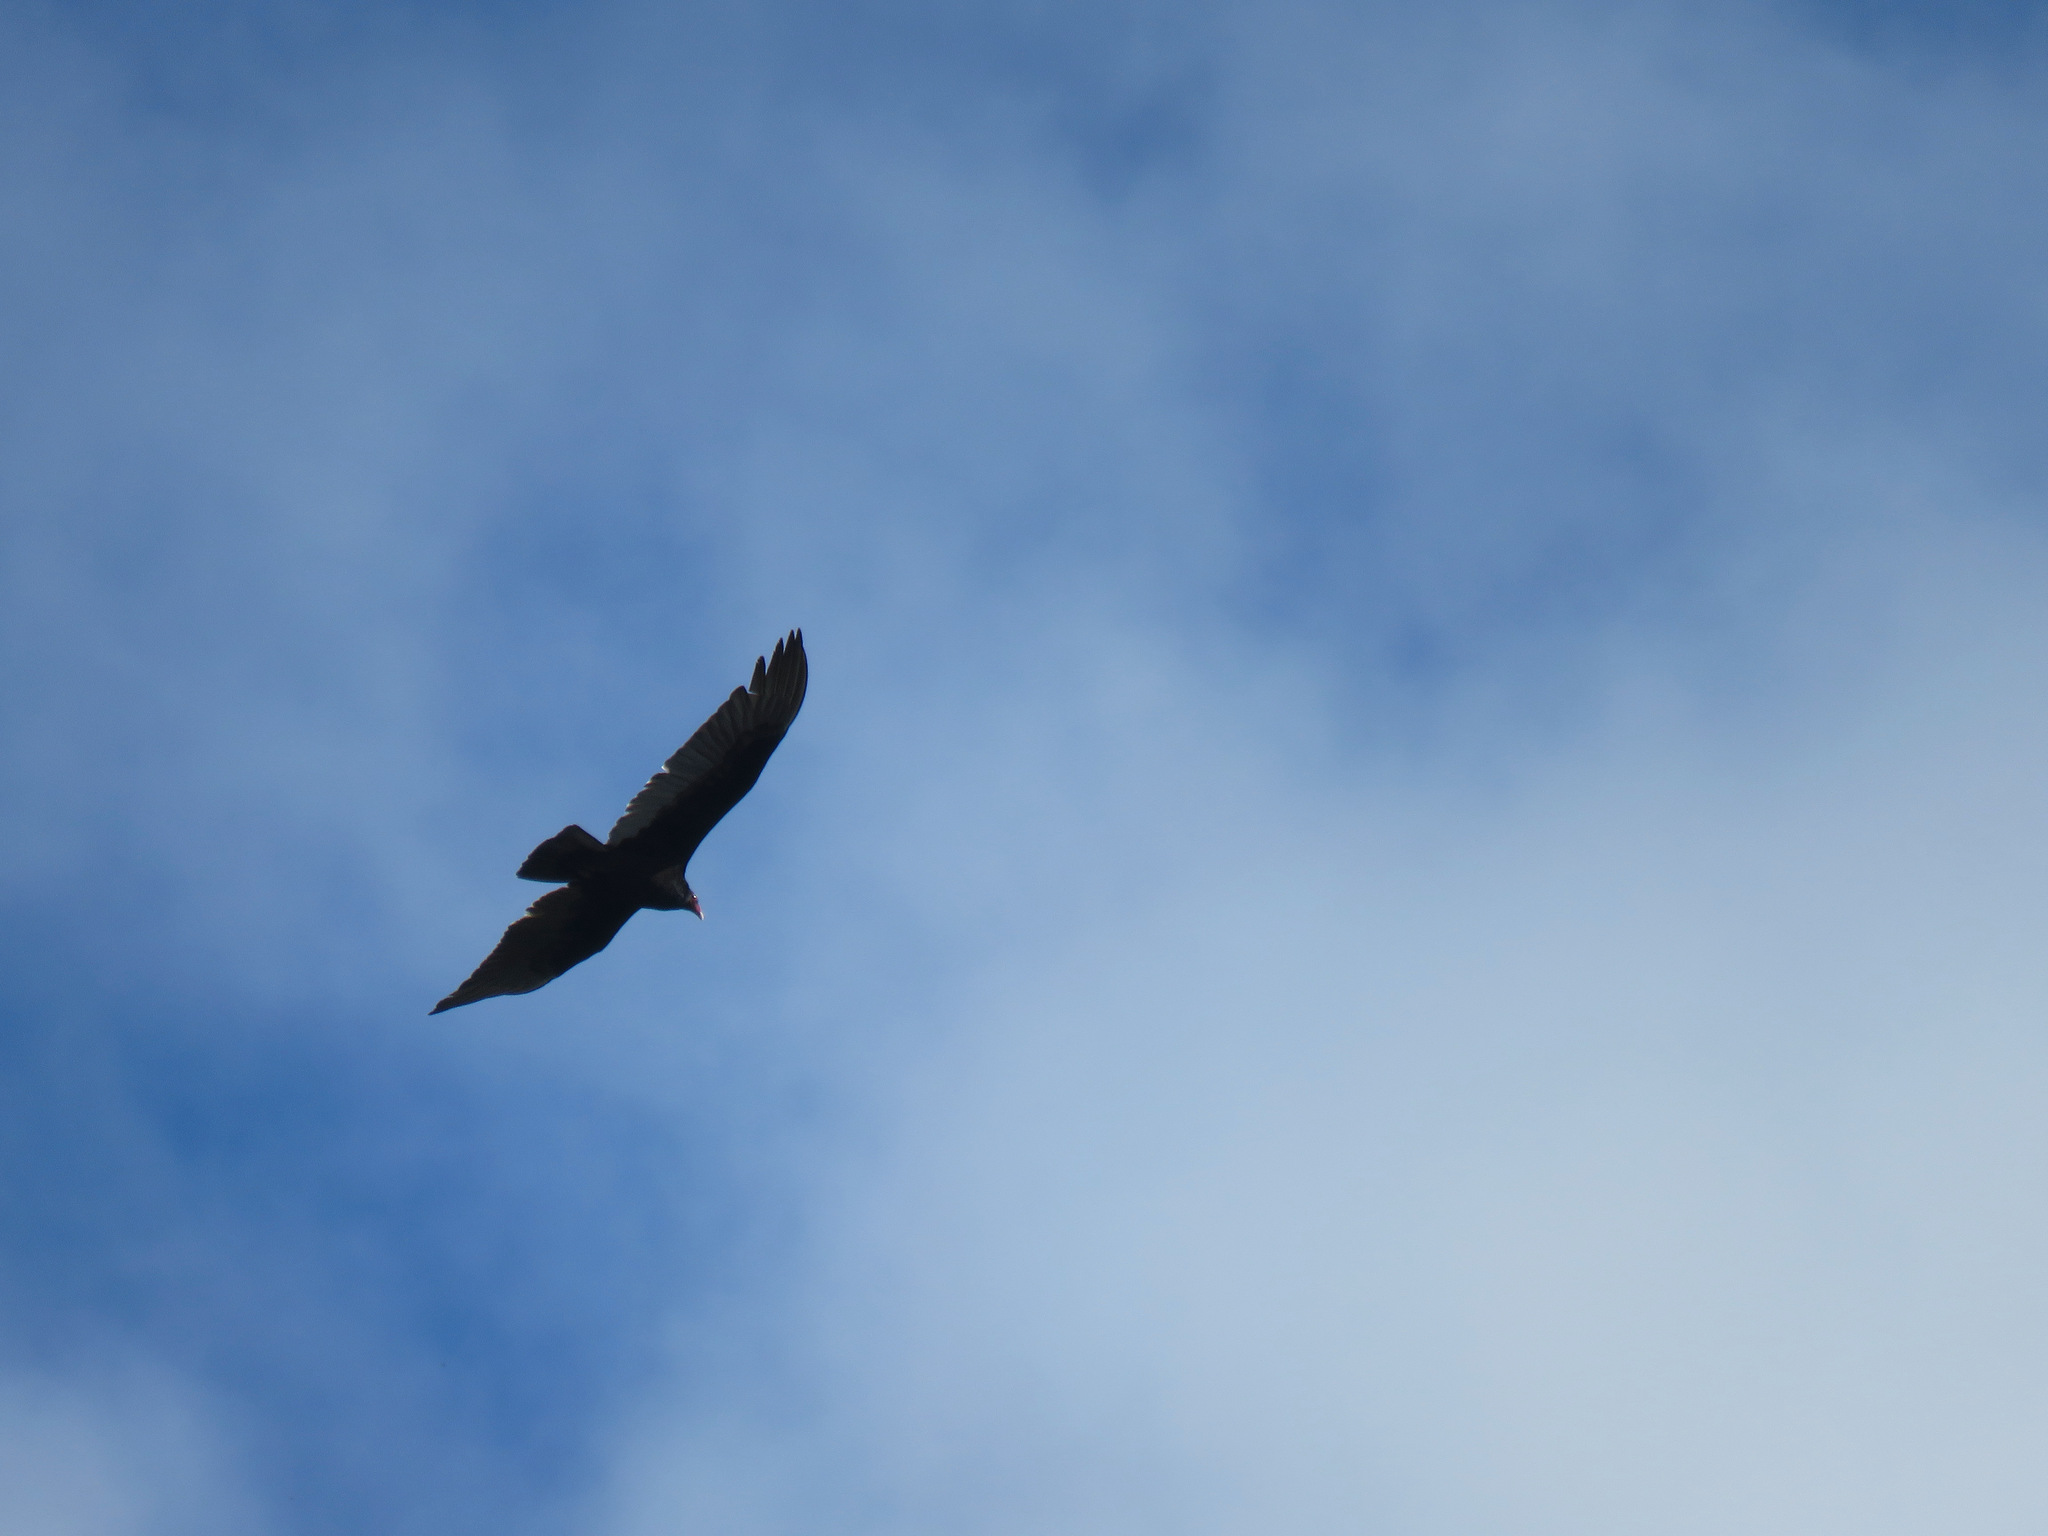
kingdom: Animalia
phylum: Chordata
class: Aves
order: Accipitriformes
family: Cathartidae
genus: Cathartes
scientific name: Cathartes aura
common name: Turkey vulture
